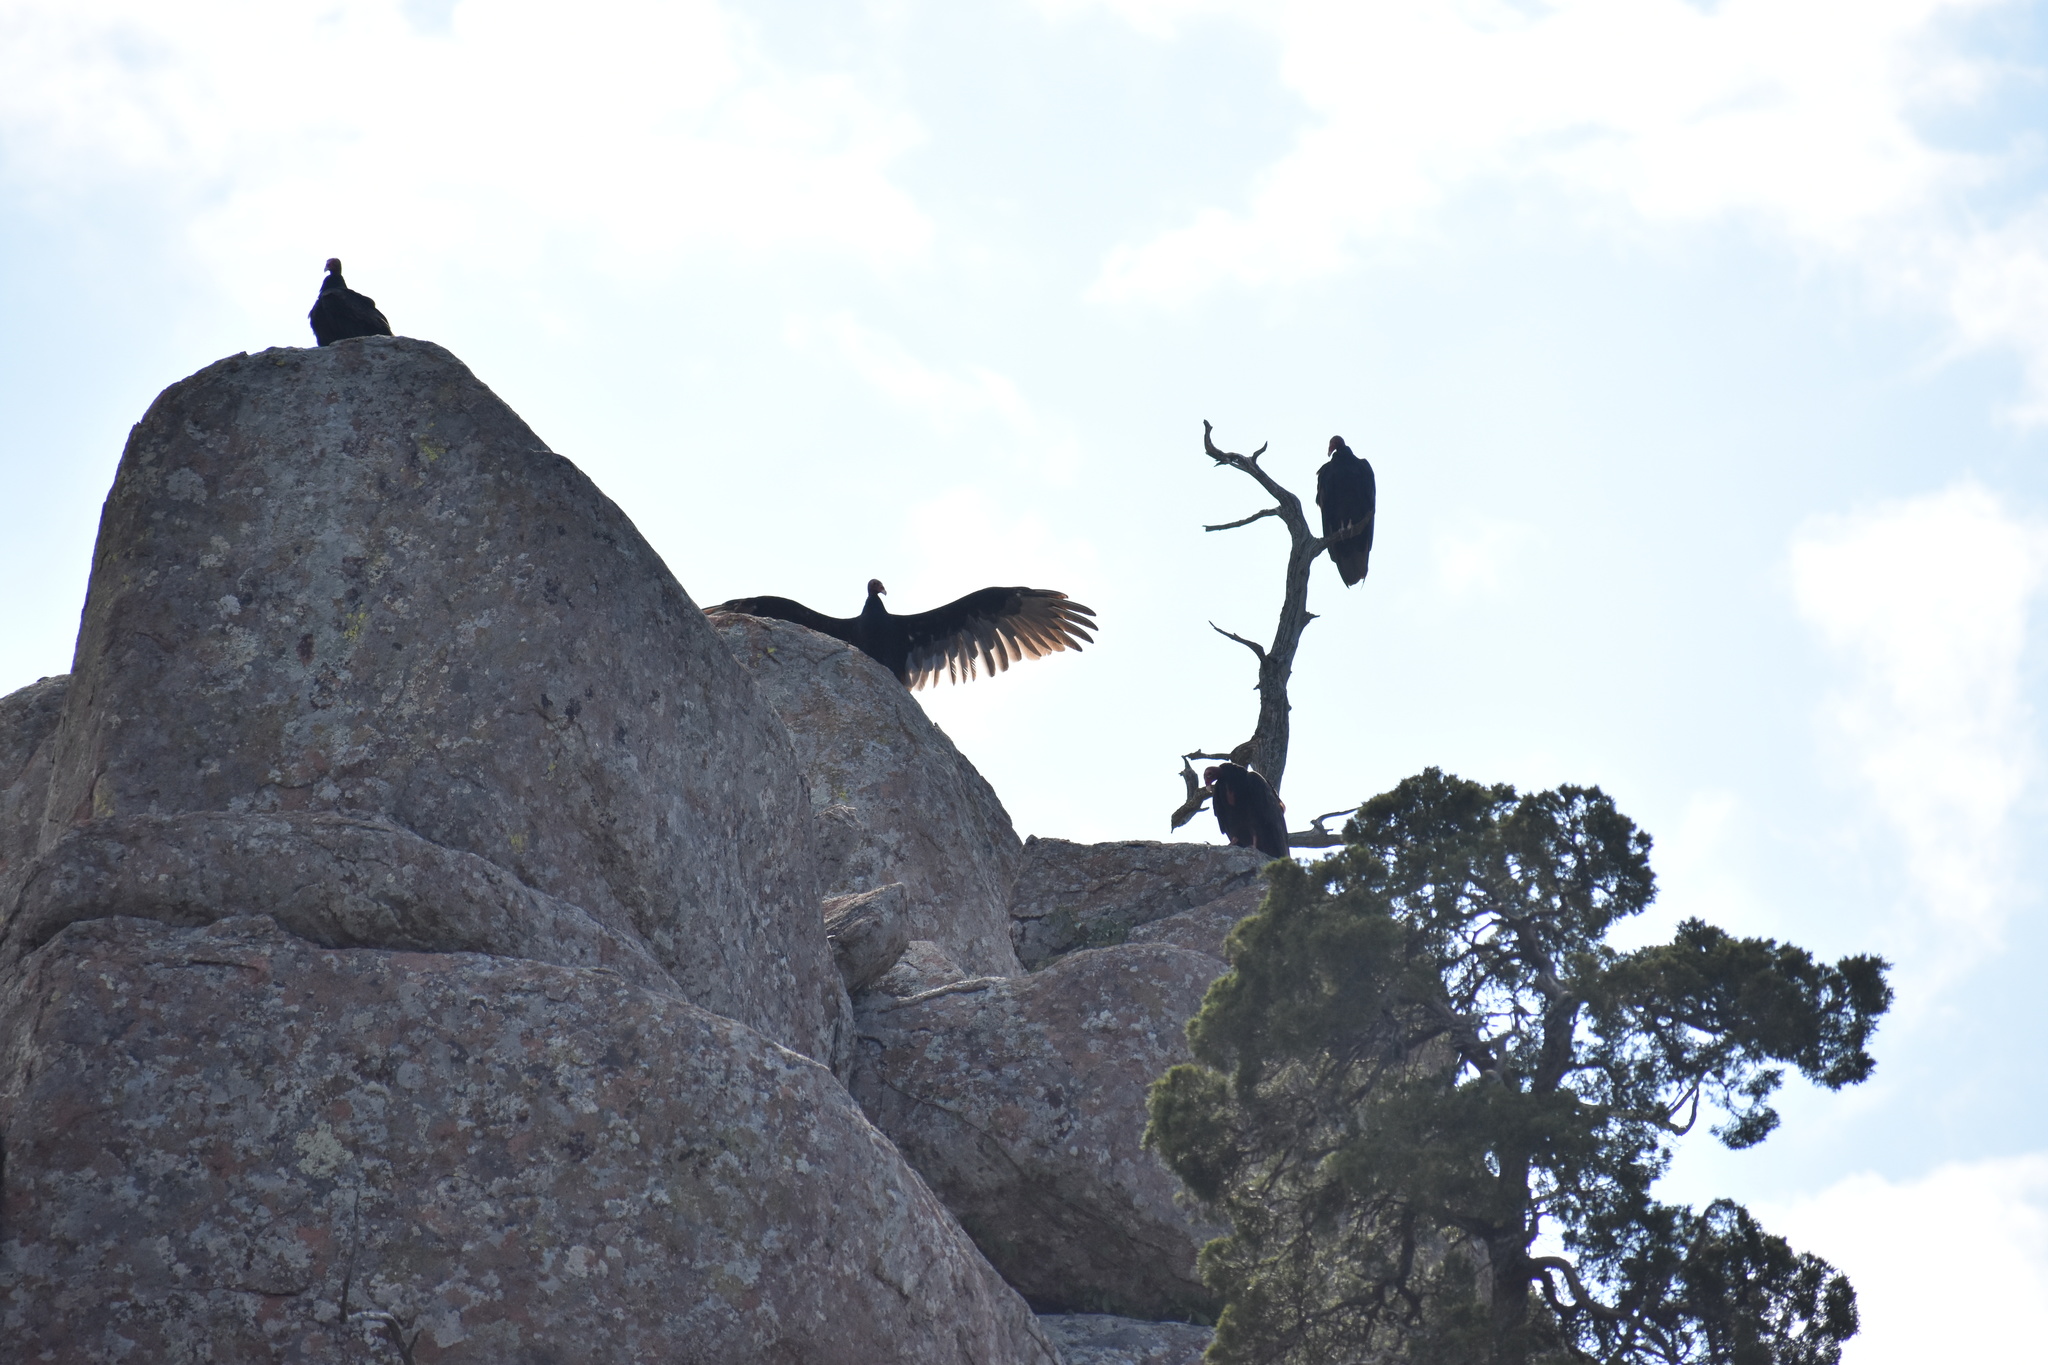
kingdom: Animalia
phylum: Chordata
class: Aves
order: Accipitriformes
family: Cathartidae
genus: Cathartes
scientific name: Cathartes aura
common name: Turkey vulture
